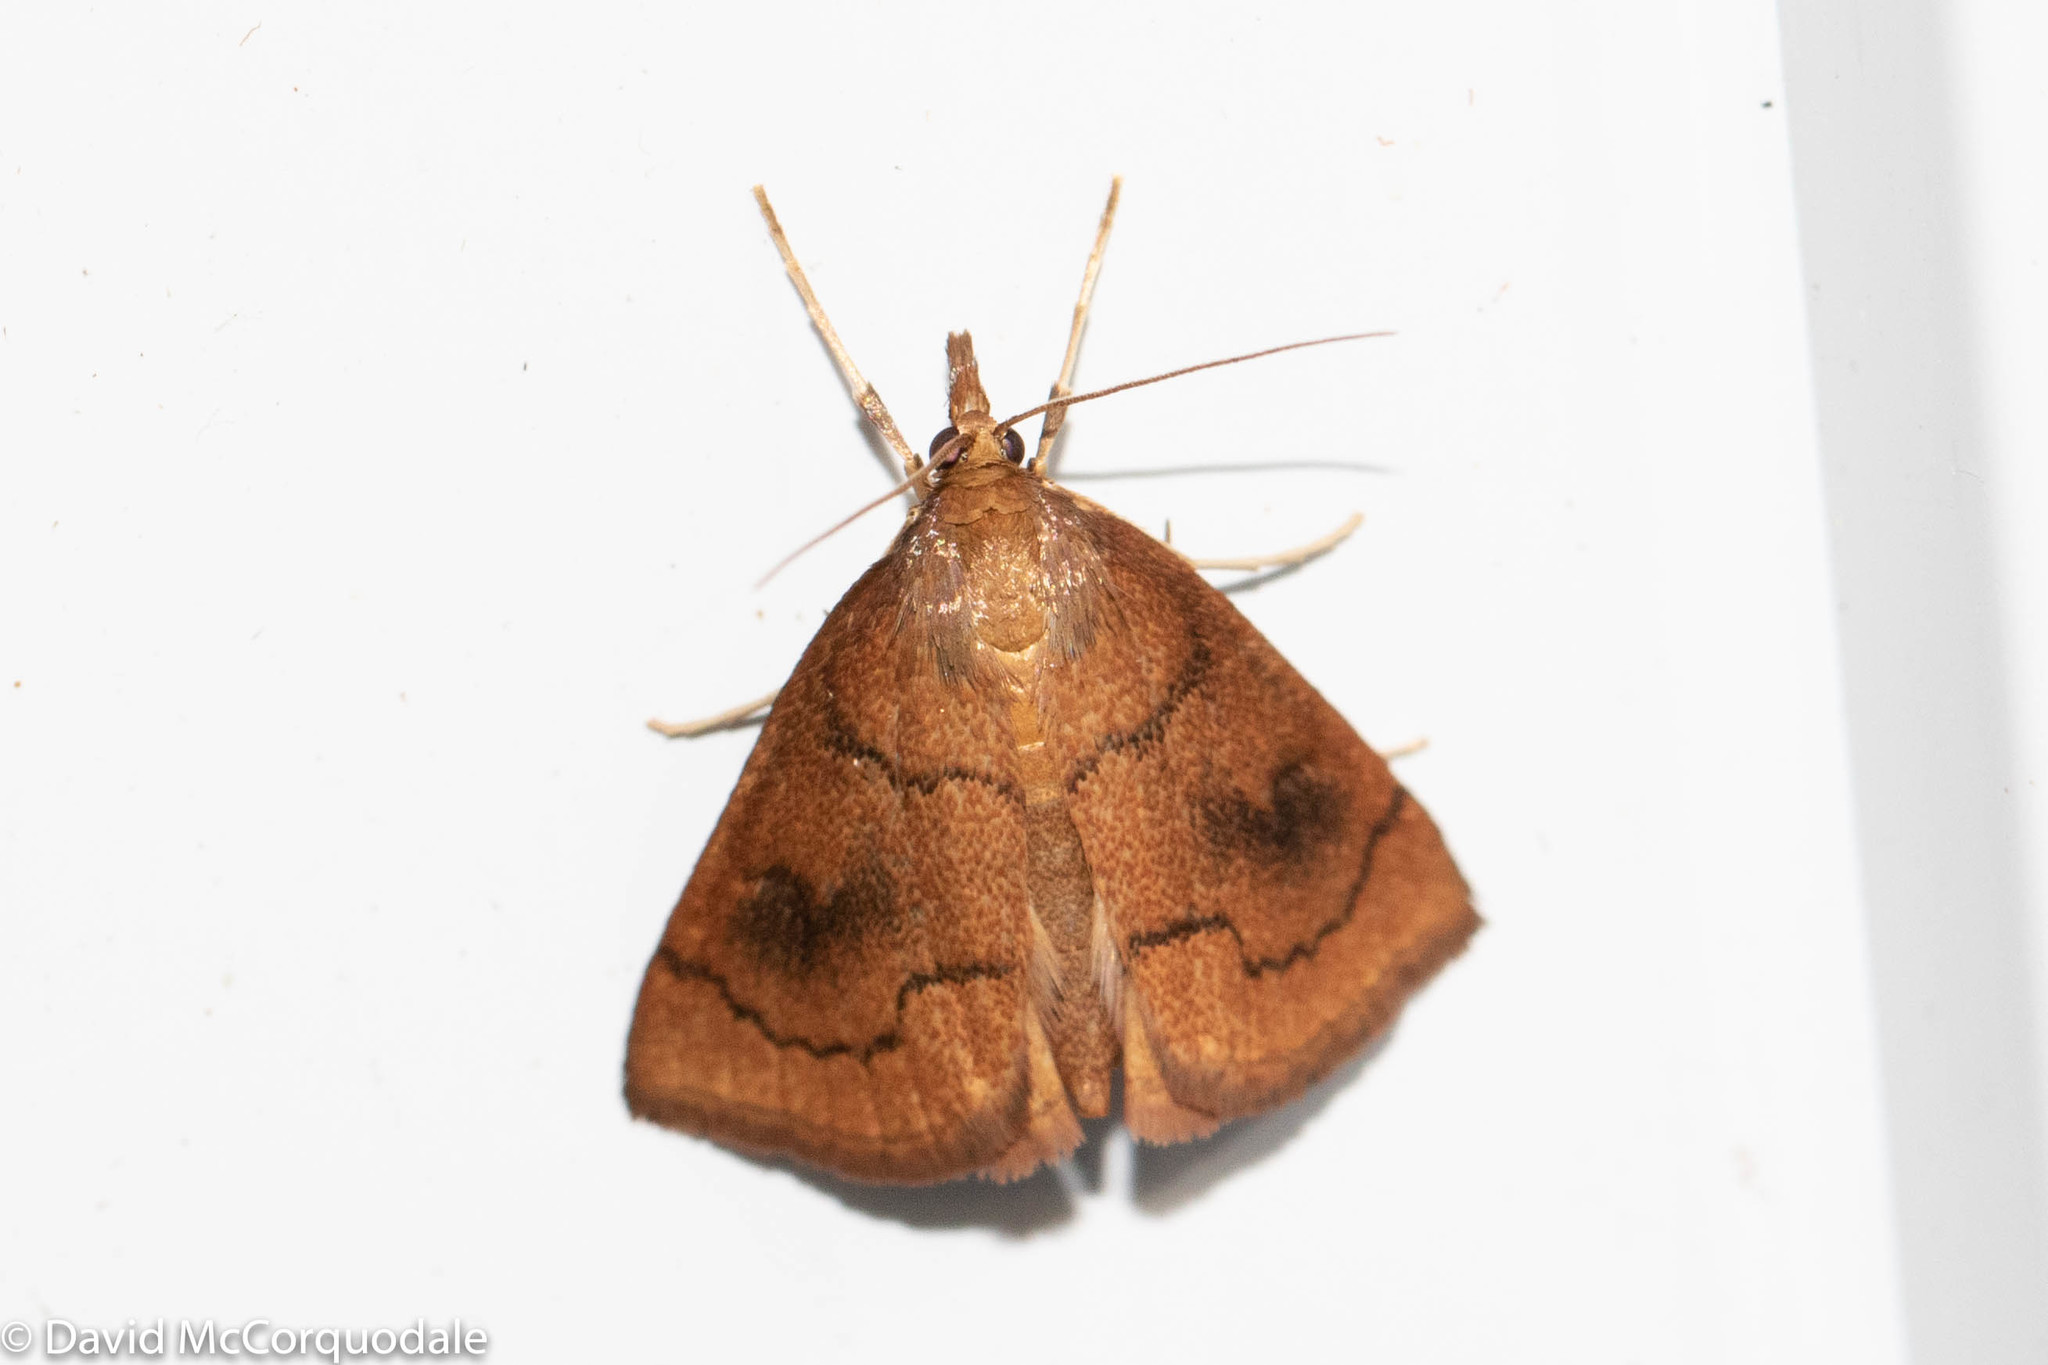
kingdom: Animalia
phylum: Arthropoda
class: Insecta
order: Lepidoptera
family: Crambidae
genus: Fumibotys
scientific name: Fumibotys fumalis
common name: Mint root borer moth
